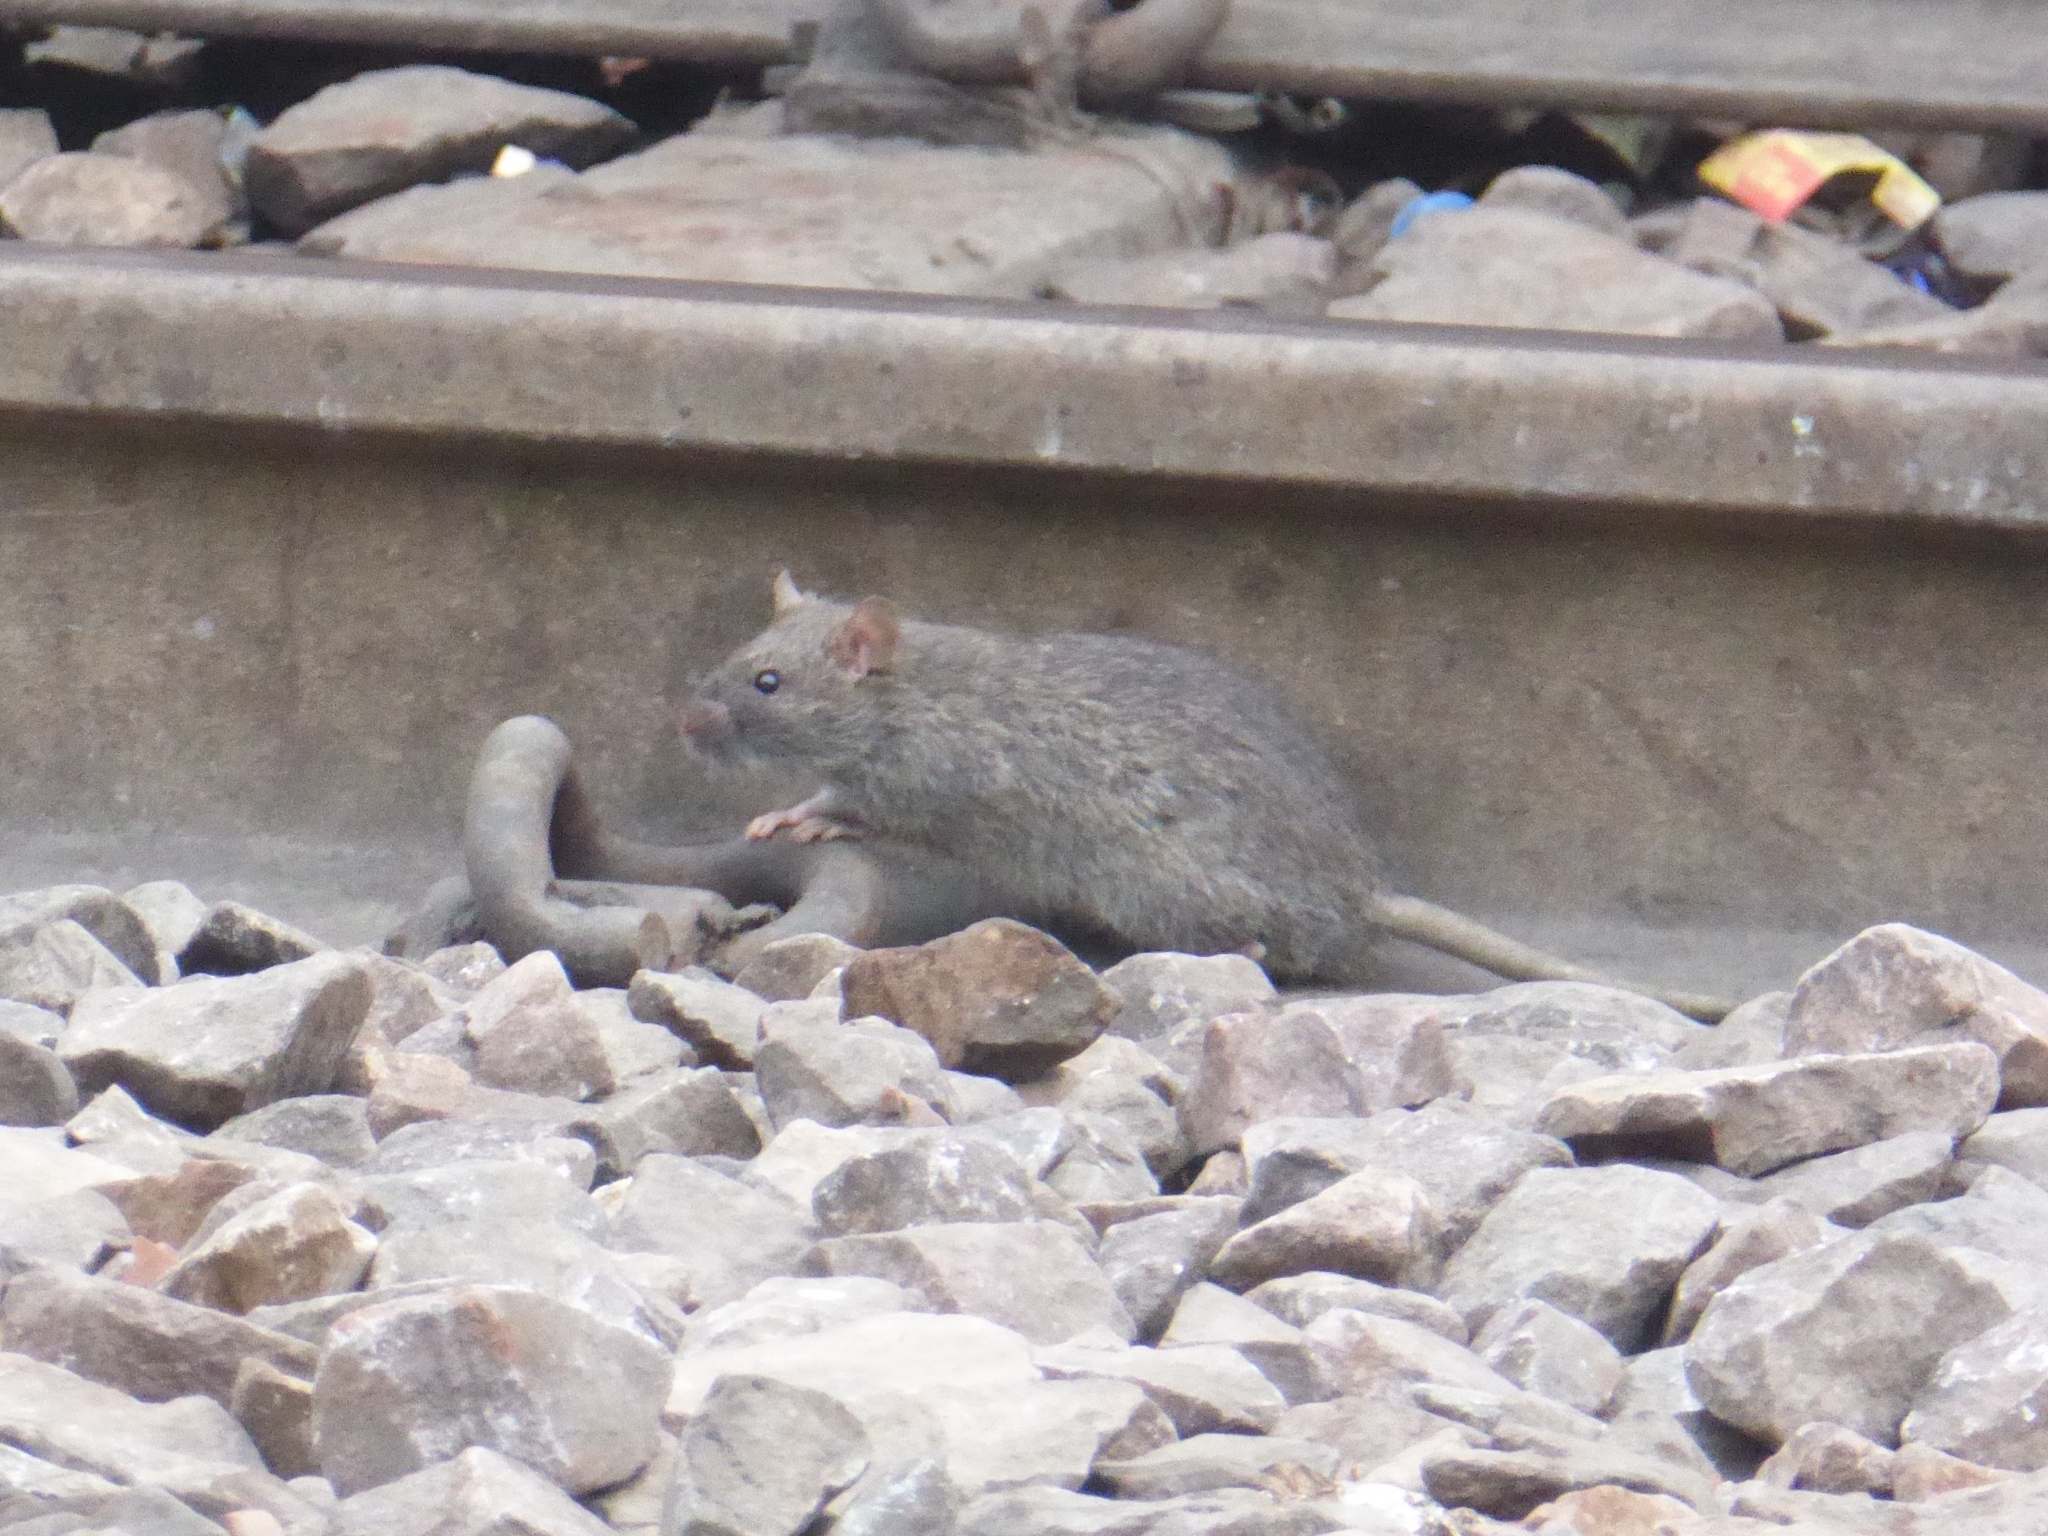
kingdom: Animalia
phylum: Chordata
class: Mammalia
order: Rodentia
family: Muridae
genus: Rattus
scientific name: Rattus rattus
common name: Black rat
